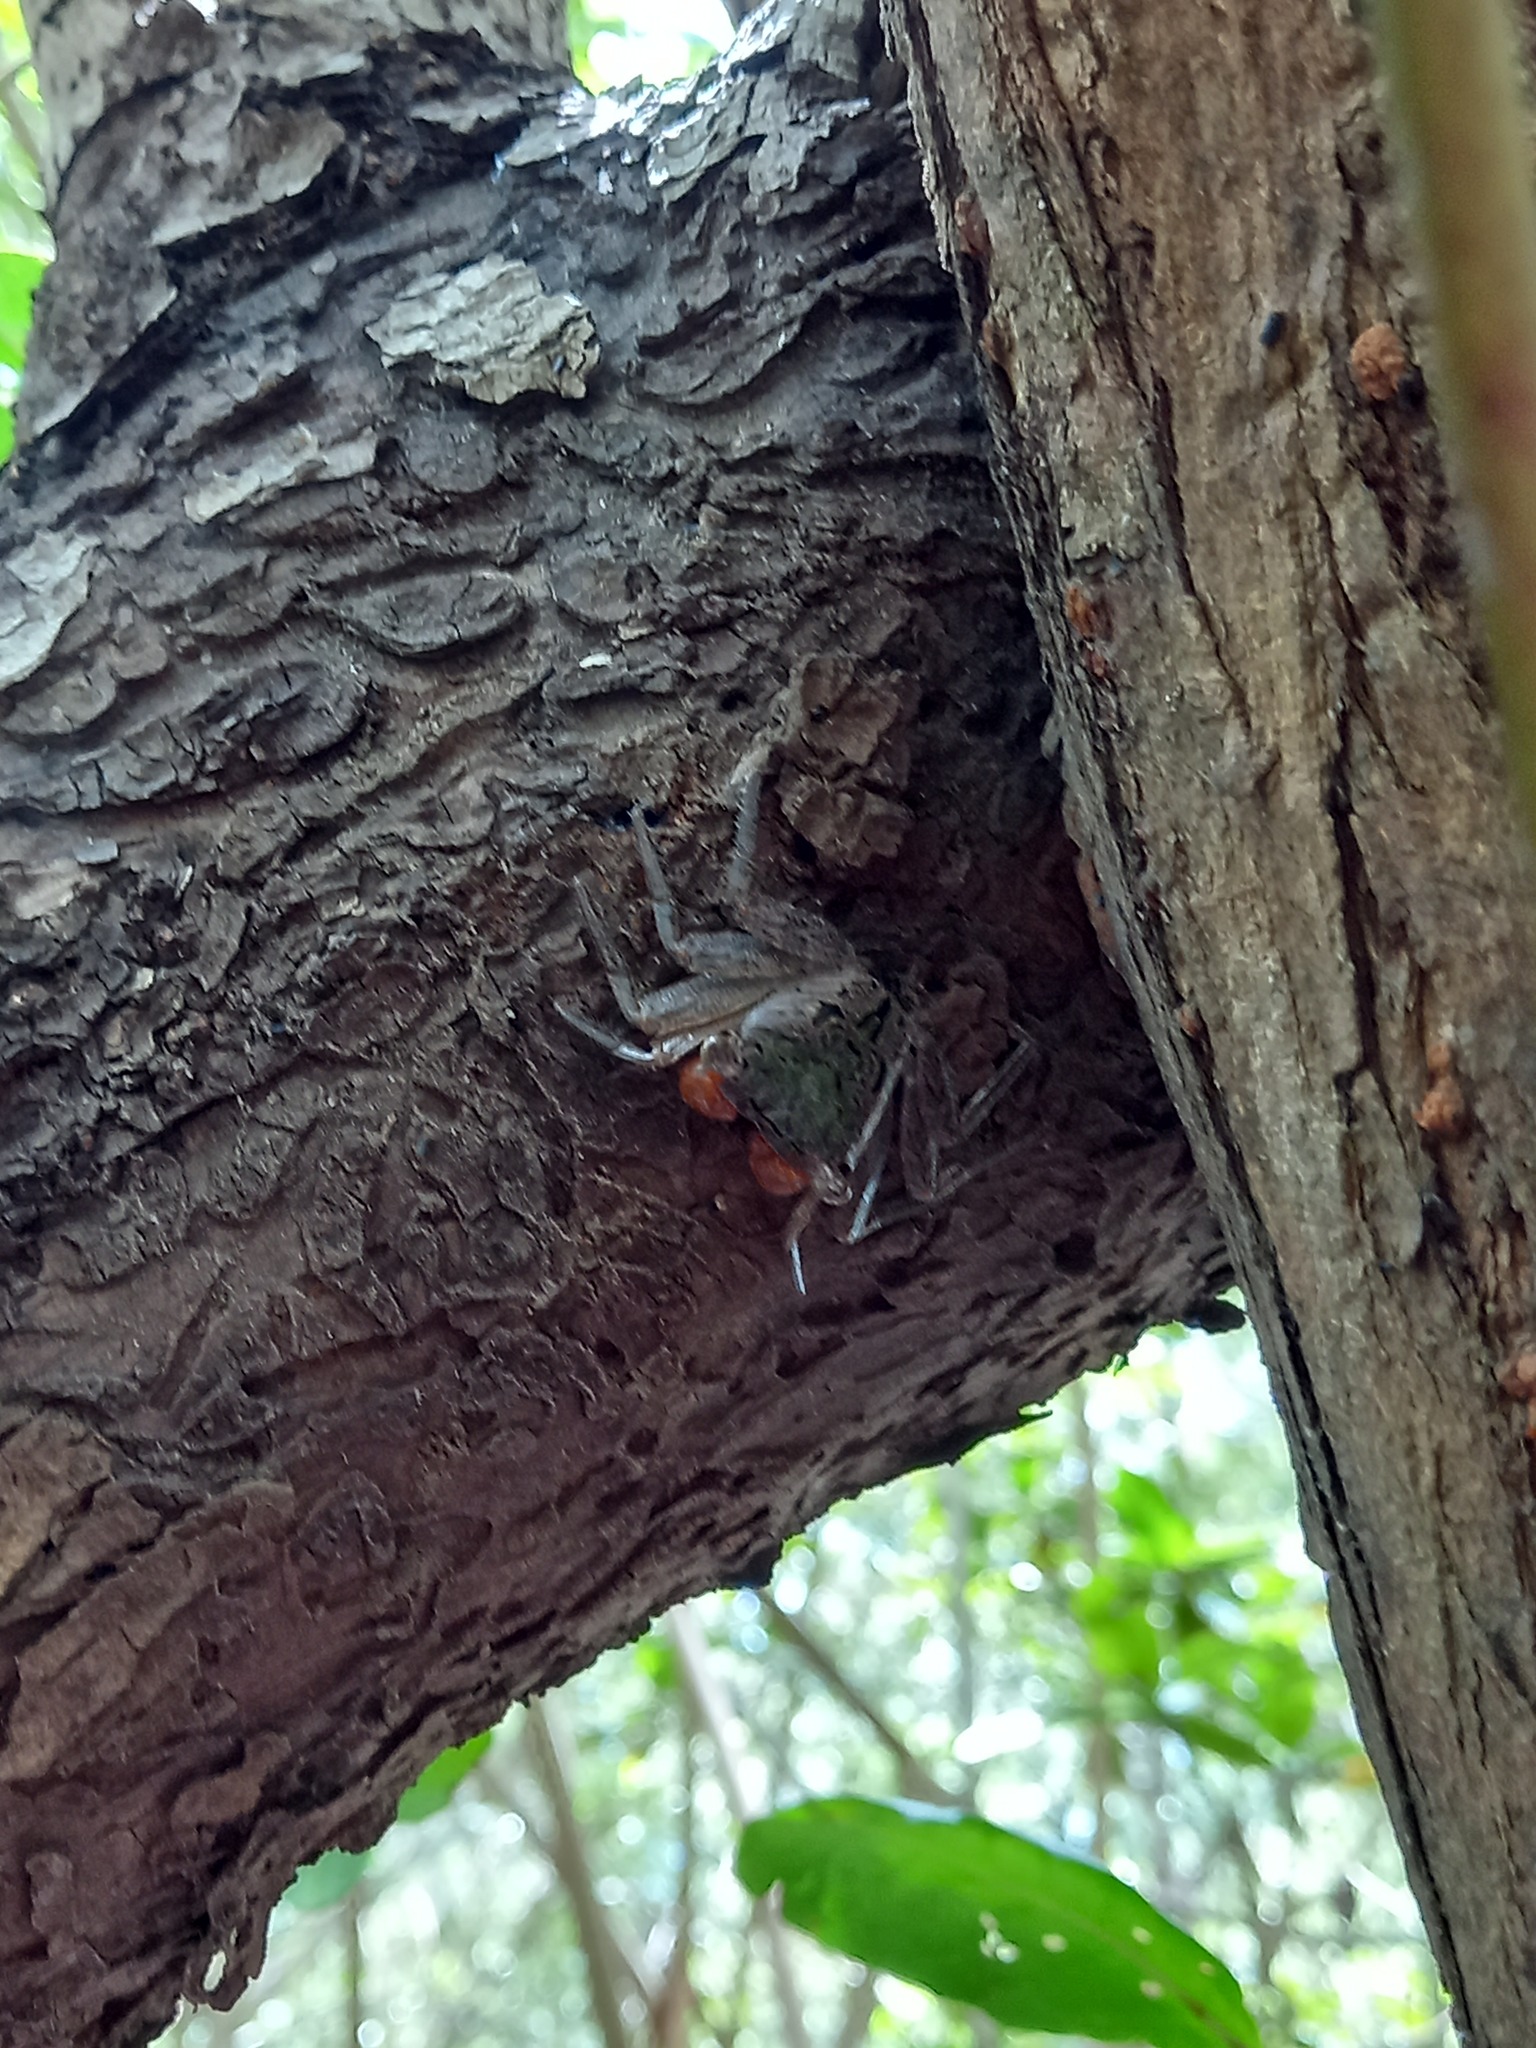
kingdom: Animalia
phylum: Arthropoda
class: Malacostraca
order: Decapoda
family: Sesarmidae
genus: Aratus
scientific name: Aratus pacificus
